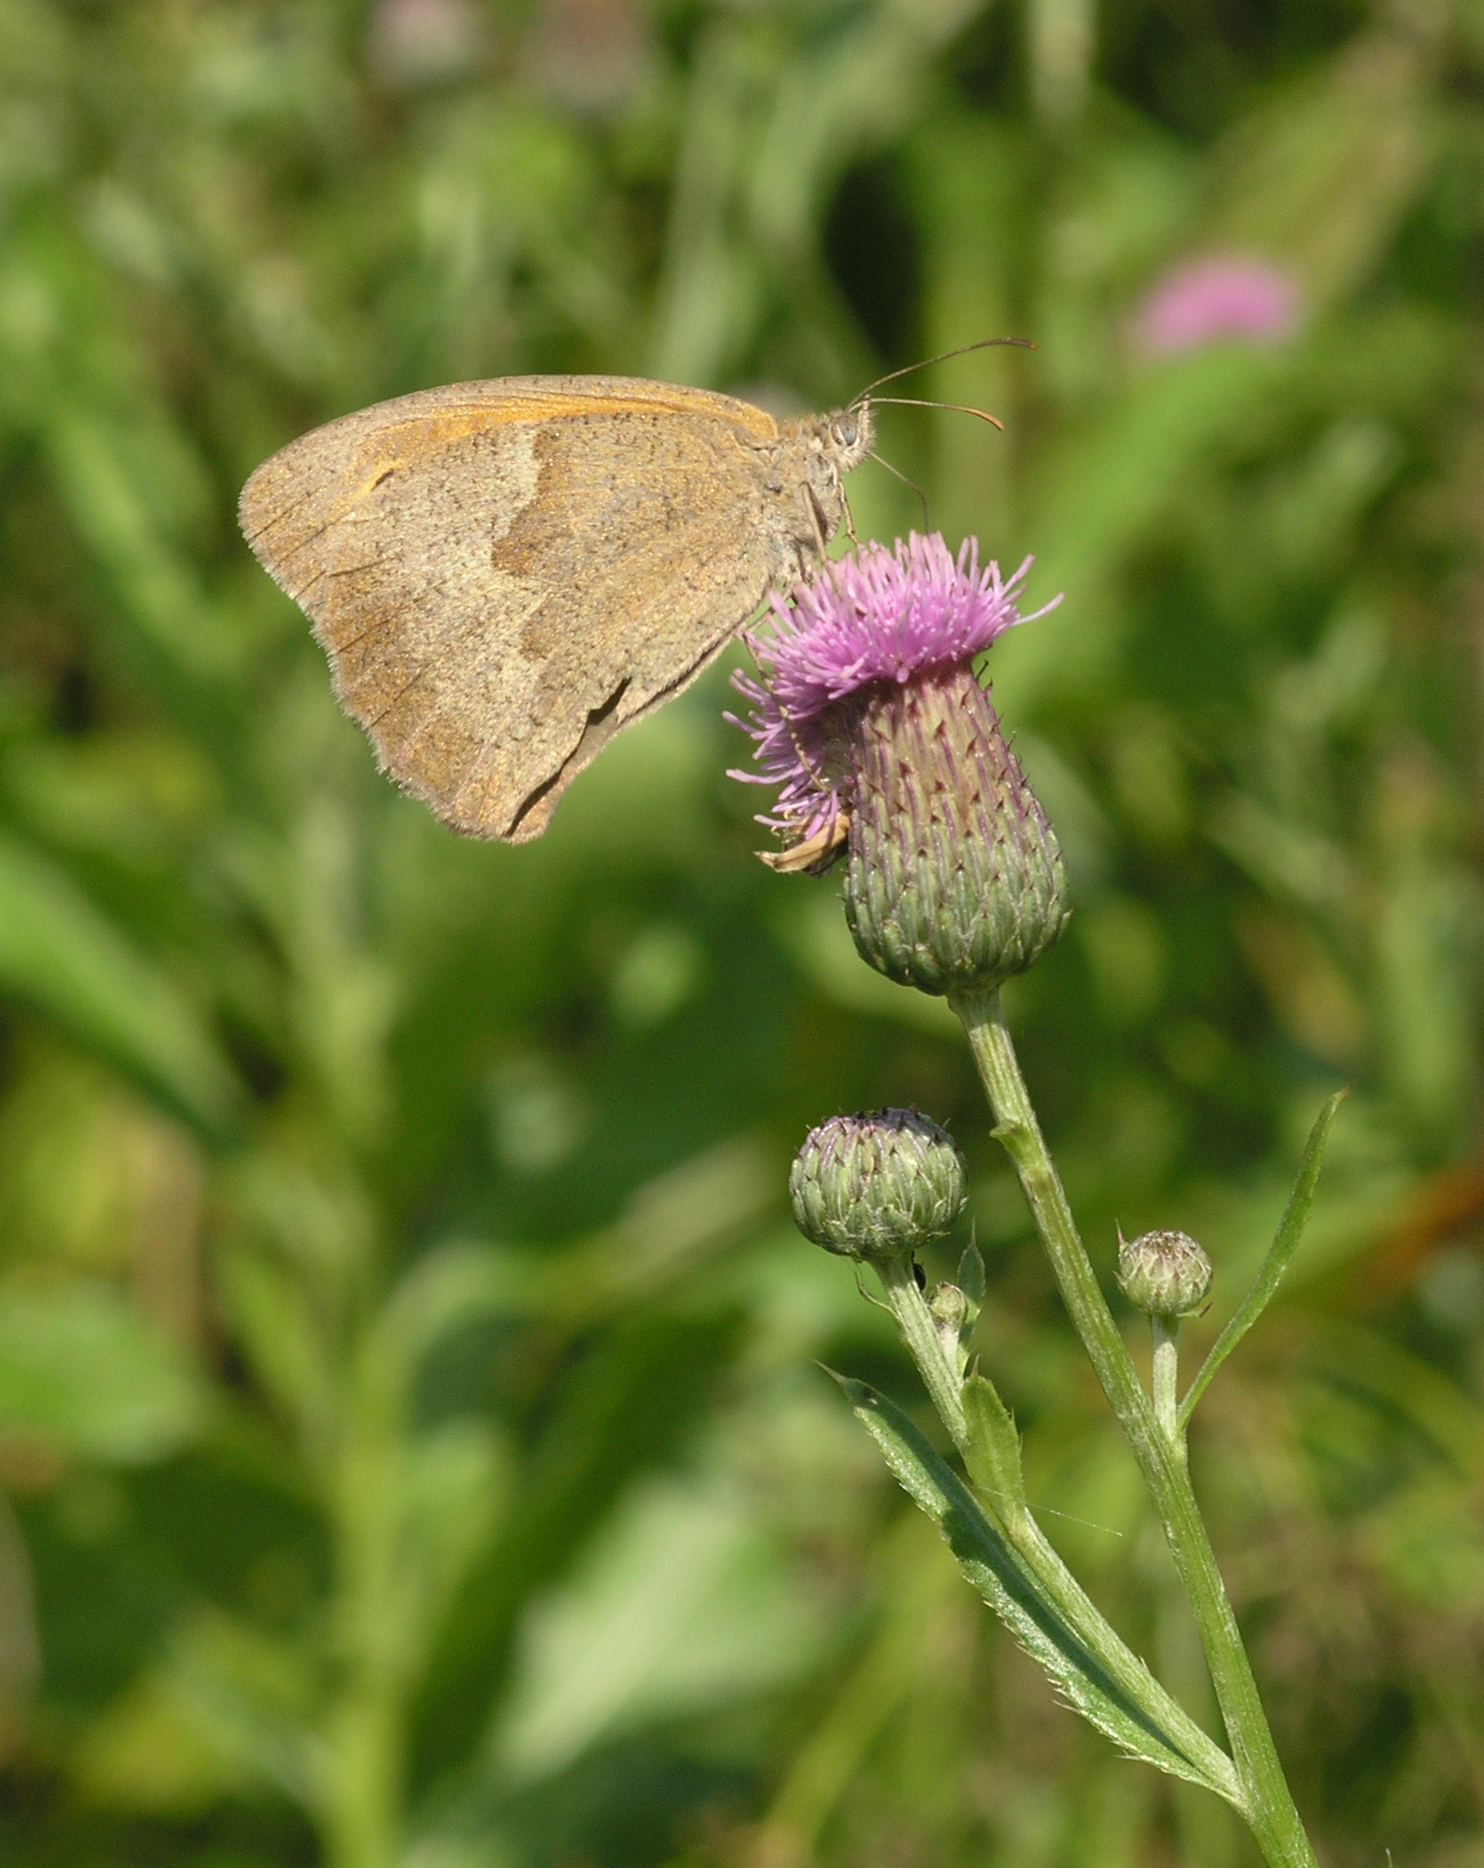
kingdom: Plantae
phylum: Tracheophyta
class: Magnoliopsida
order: Asterales
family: Asteraceae
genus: Cirsium
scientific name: Cirsium arvense
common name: Creeping thistle
